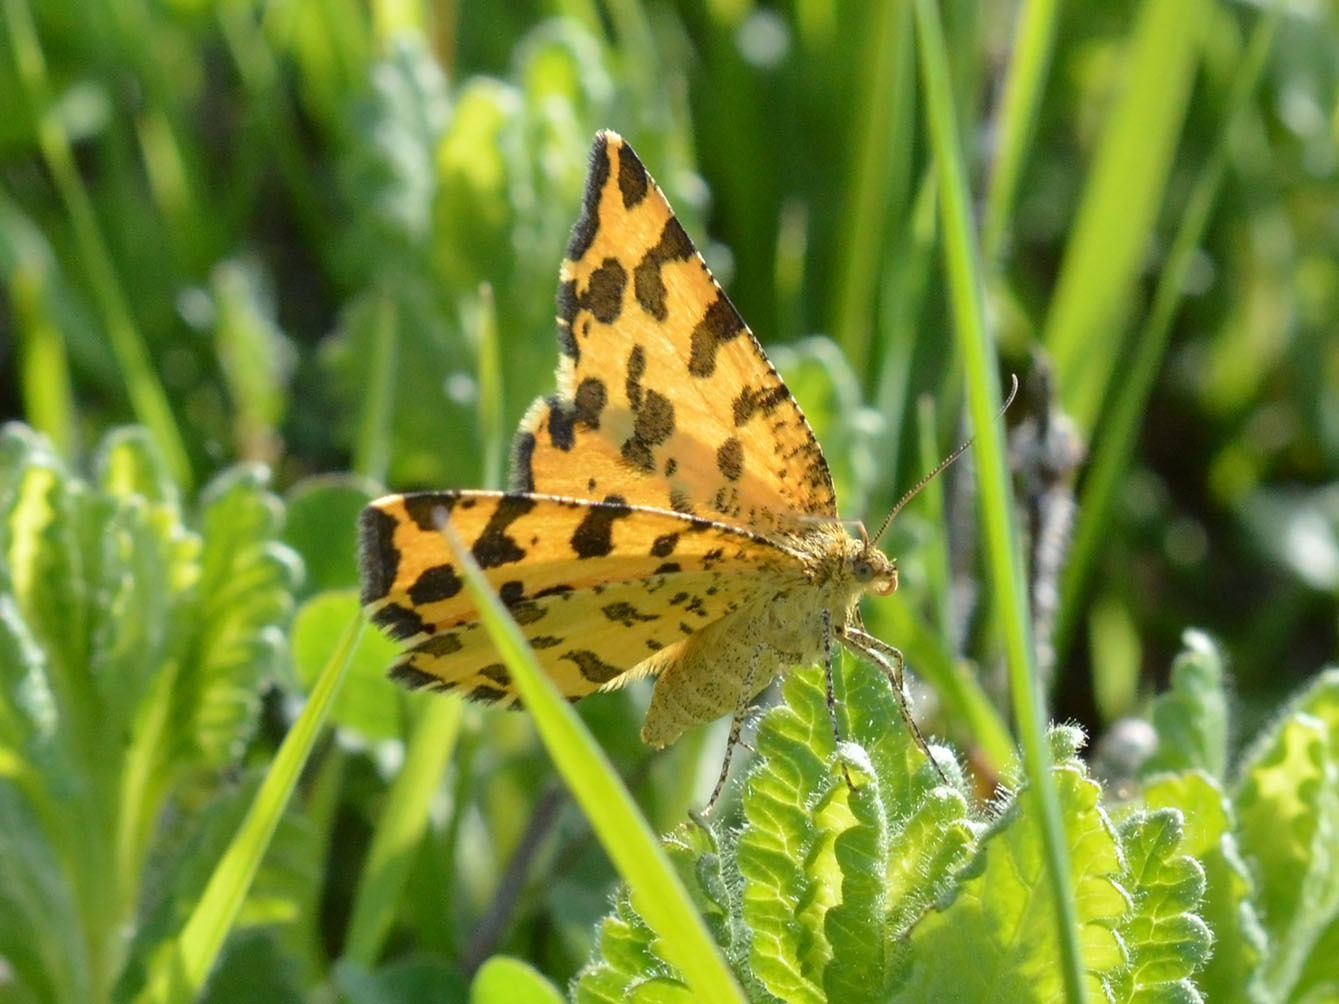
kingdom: Animalia
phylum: Arthropoda
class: Insecta
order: Lepidoptera
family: Geometridae
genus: Pseudopanthera
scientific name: Pseudopanthera macularia
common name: Speckled yellow
